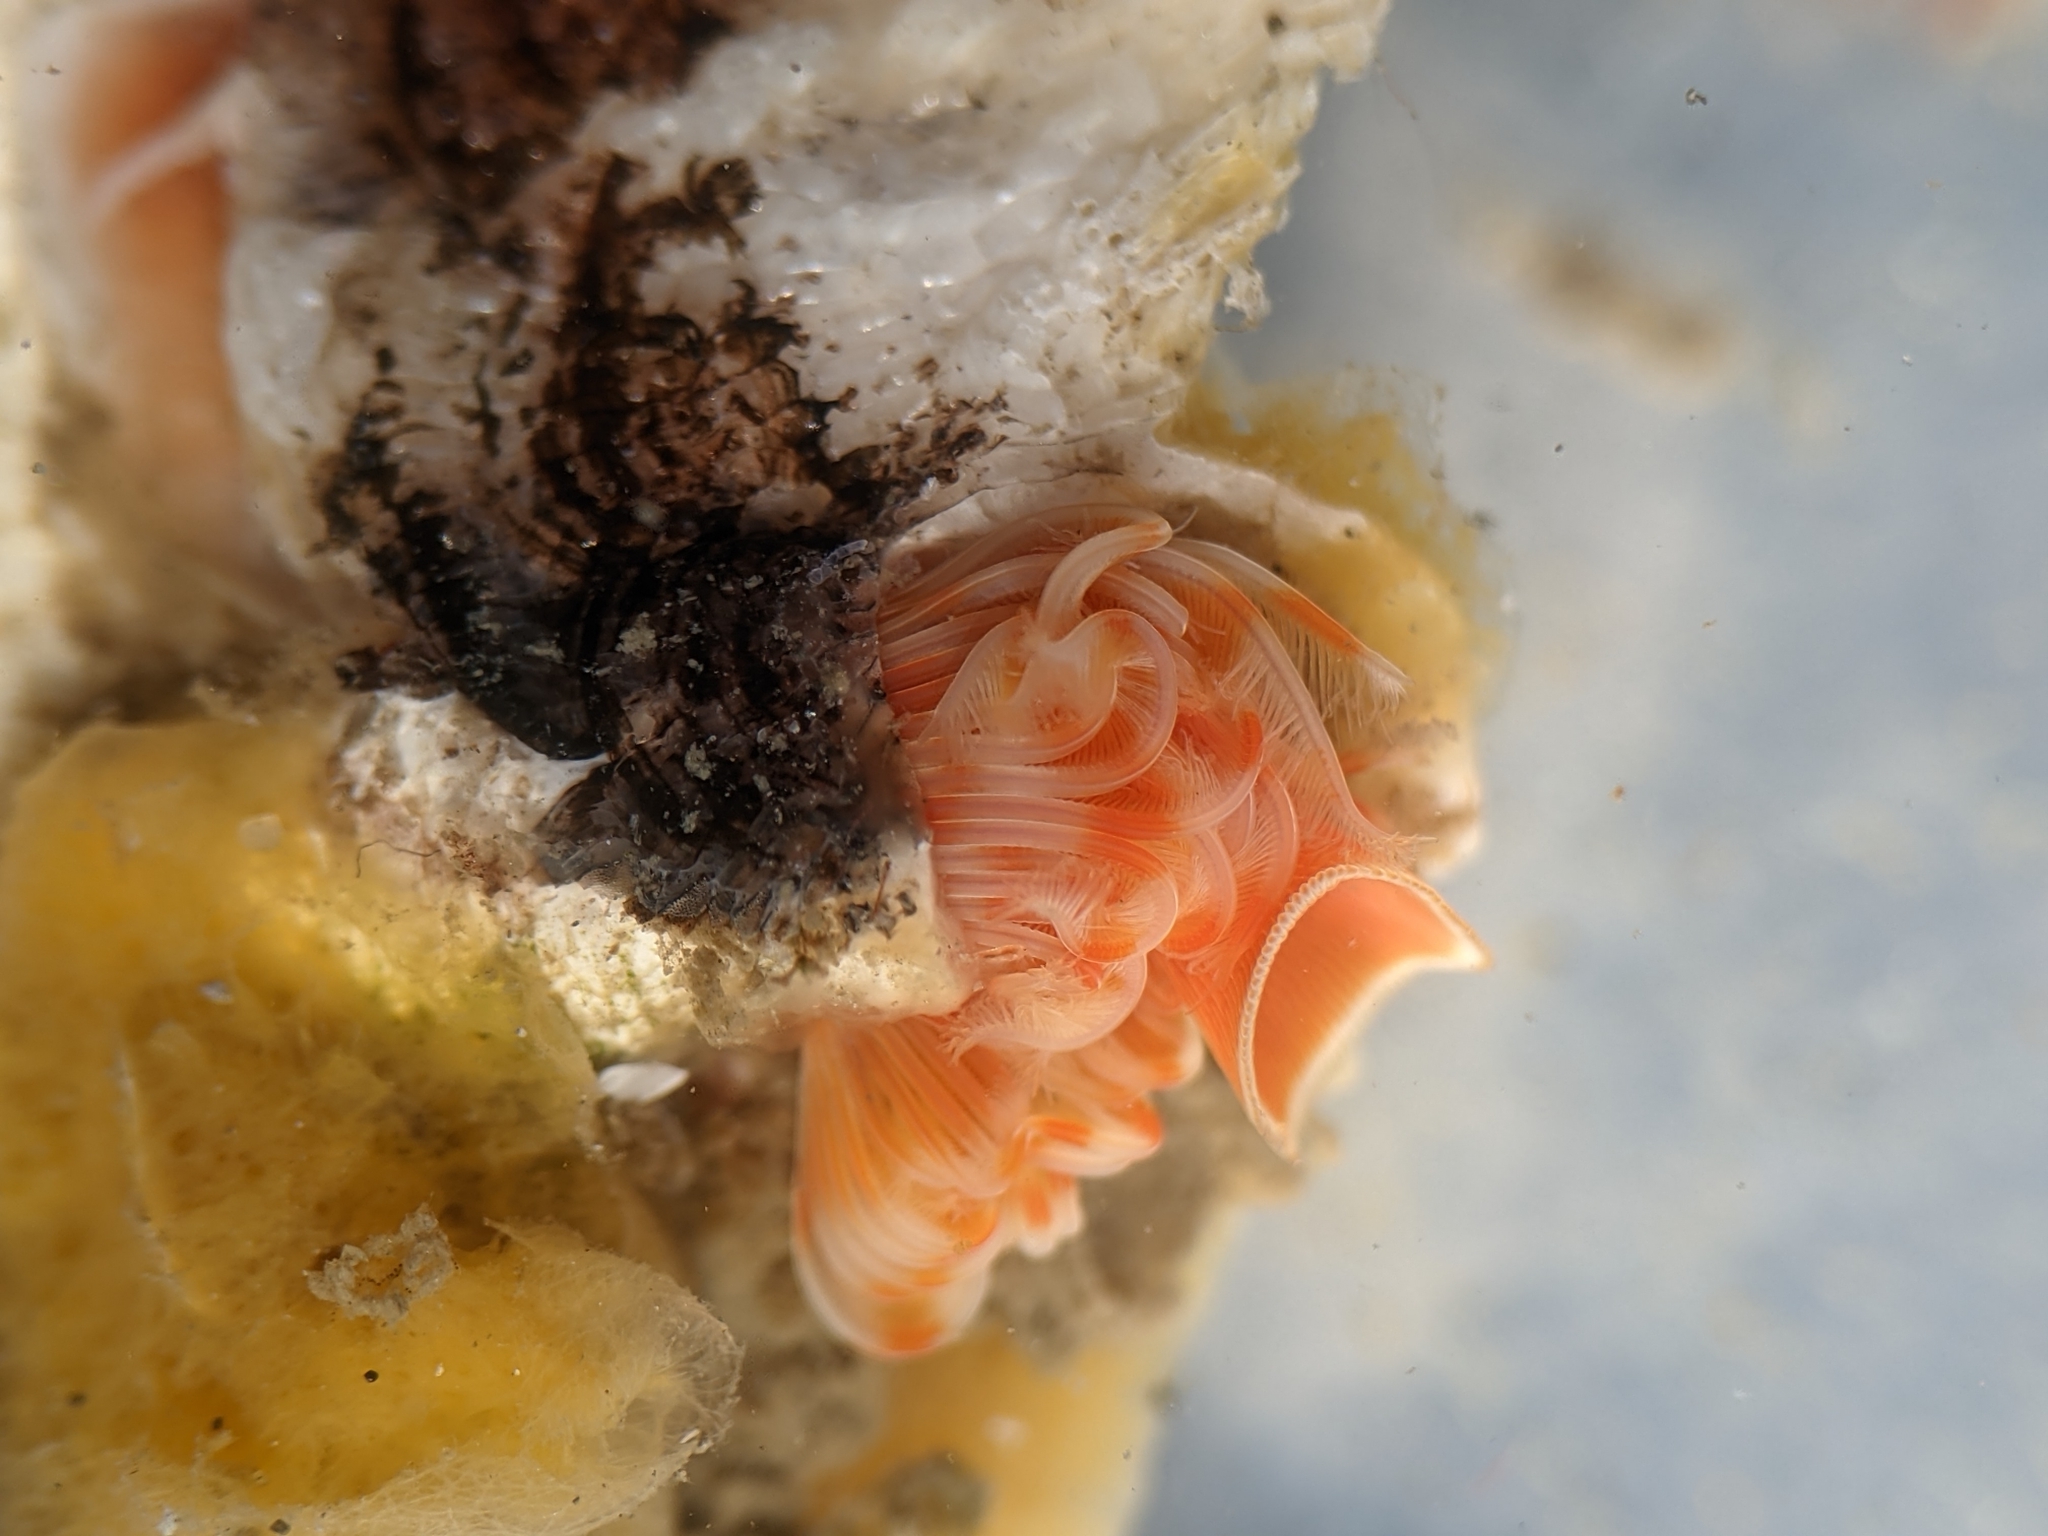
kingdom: Animalia
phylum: Annelida
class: Polychaeta
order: Sabellida
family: Serpulidae
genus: Serpula
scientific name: Serpula columbiana
